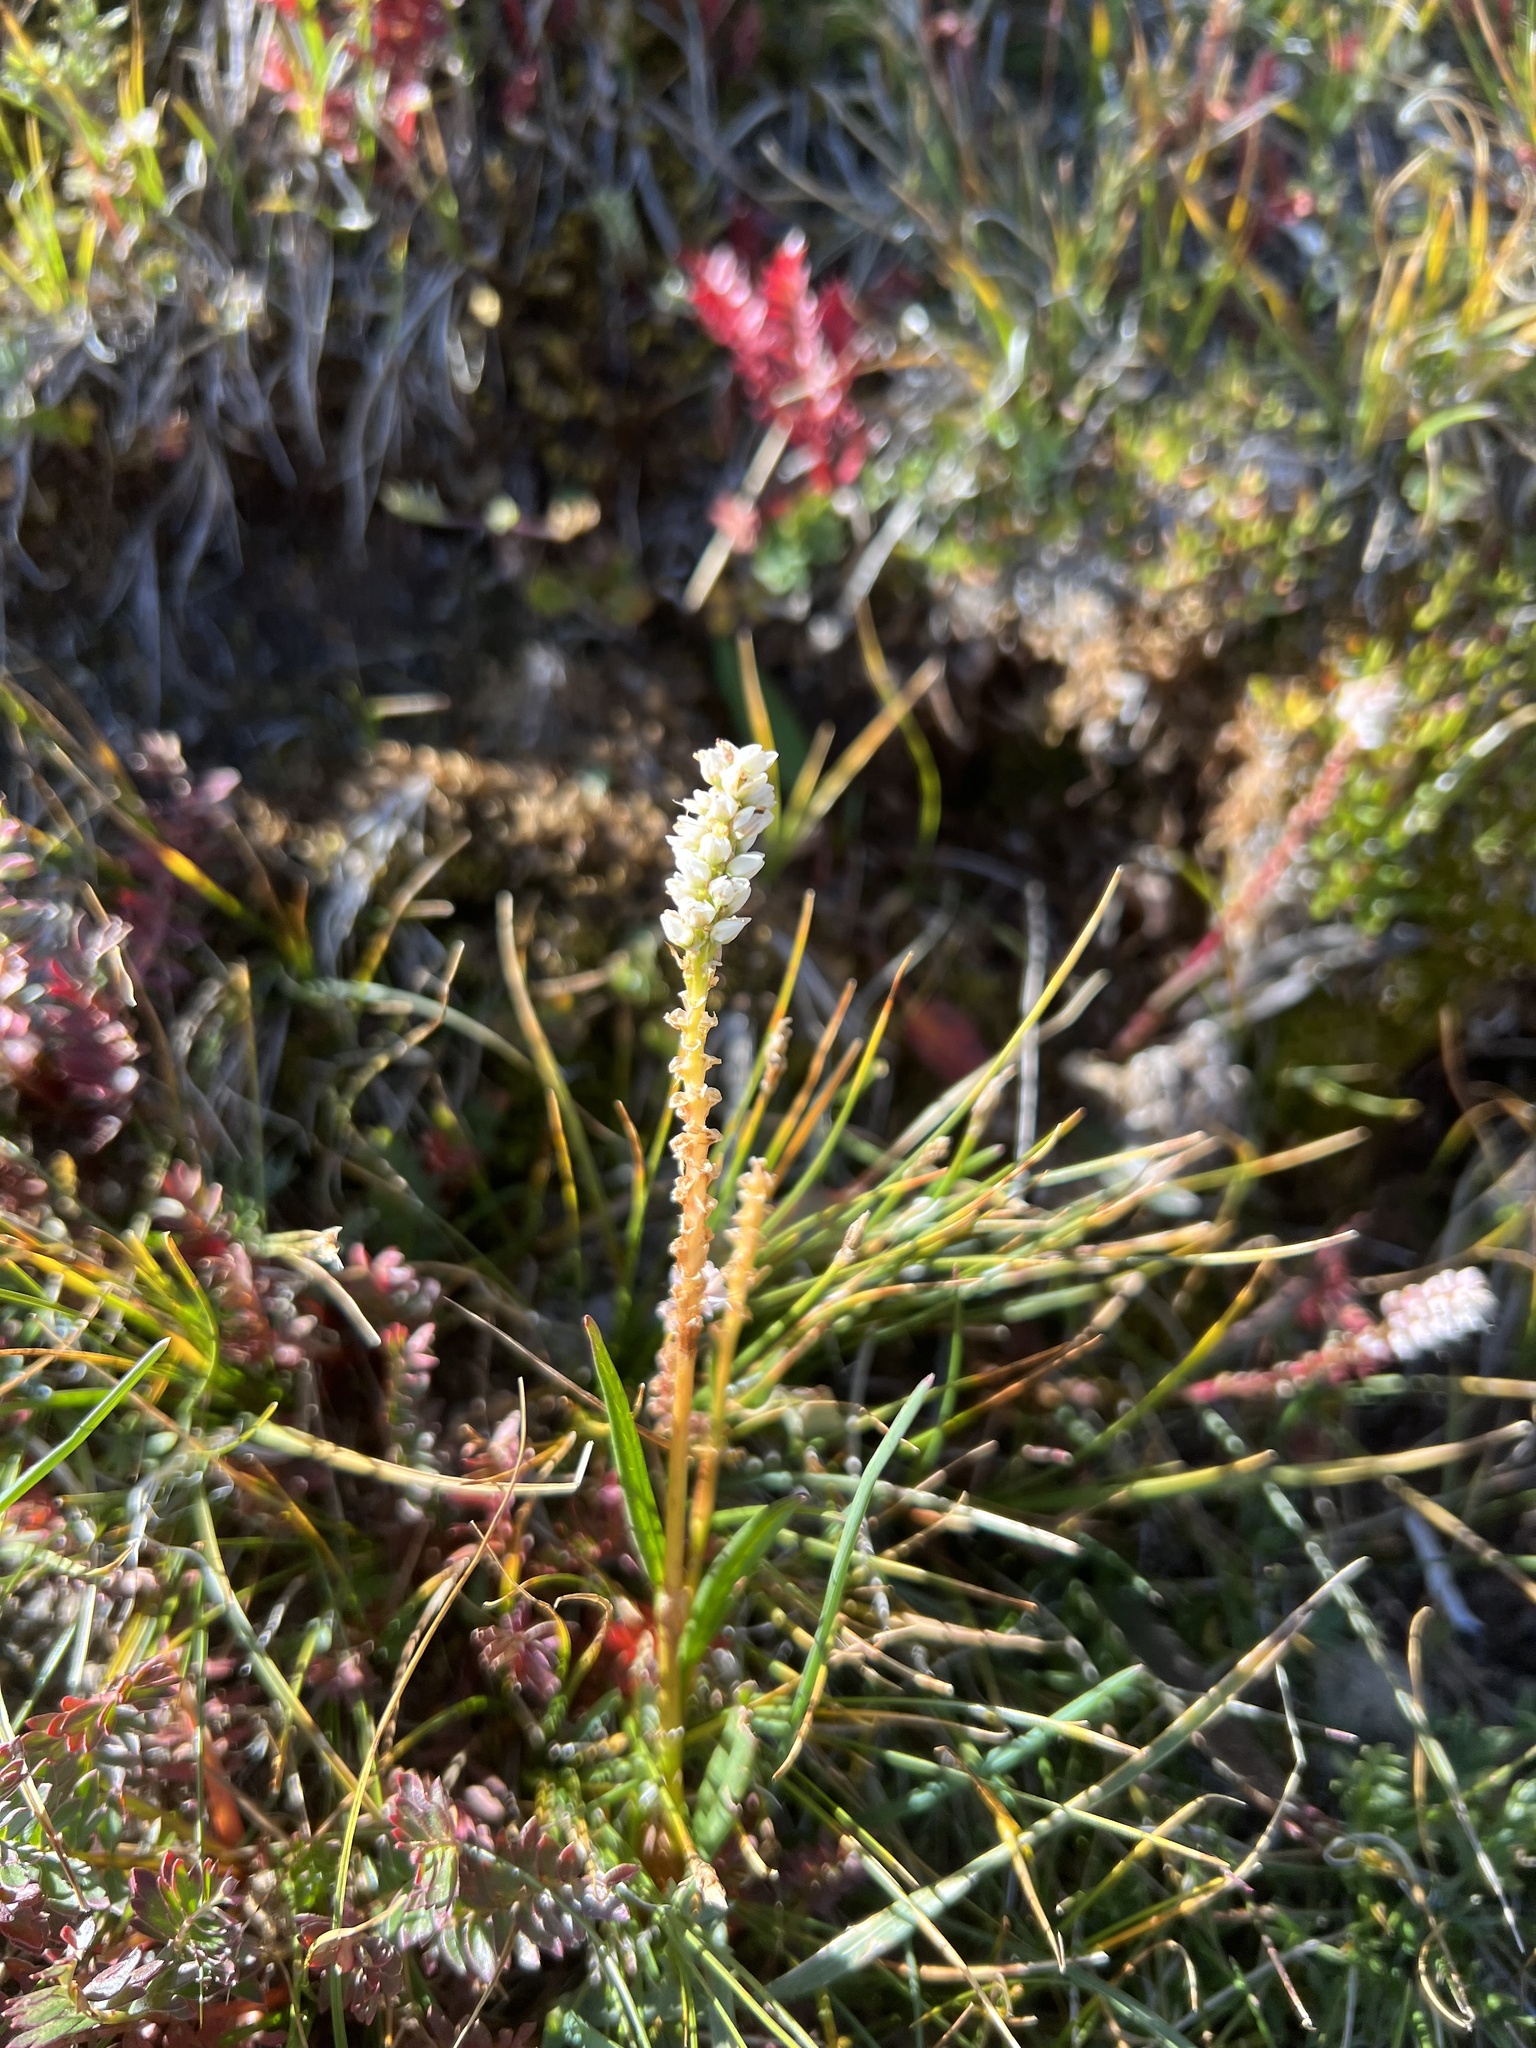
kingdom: Plantae
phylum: Tracheophyta
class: Magnoliopsida
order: Caryophyllales
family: Polygonaceae
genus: Bistorta
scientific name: Bistorta vivipara
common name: Alpine bistort
